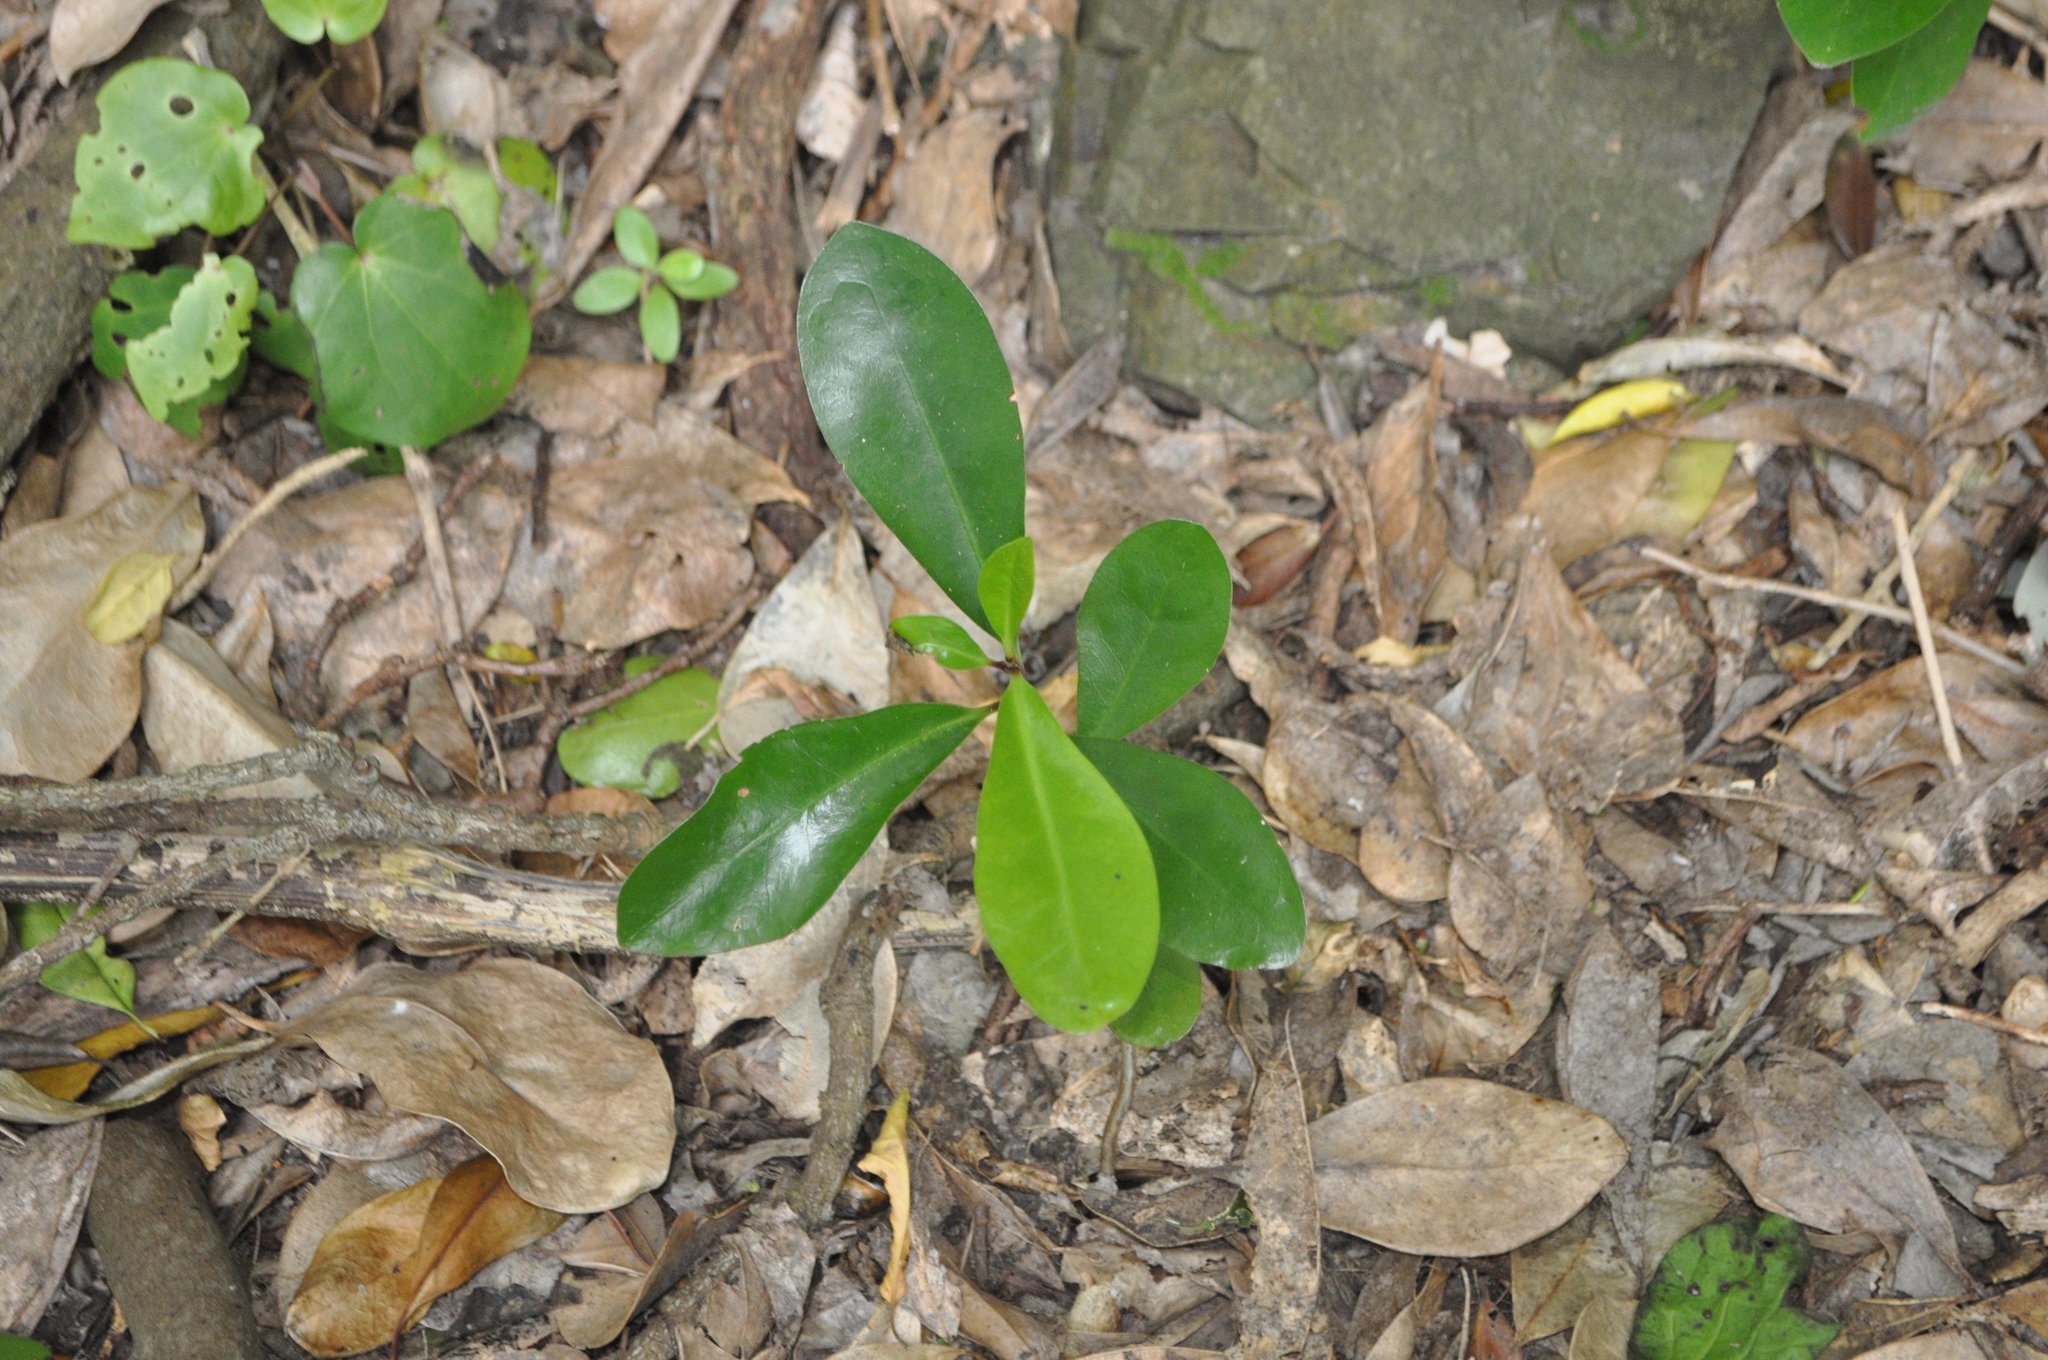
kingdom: Plantae
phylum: Tracheophyta
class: Magnoliopsida
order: Cucurbitales
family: Corynocarpaceae
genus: Corynocarpus
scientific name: Corynocarpus laevigatus
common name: New zealand laurel
